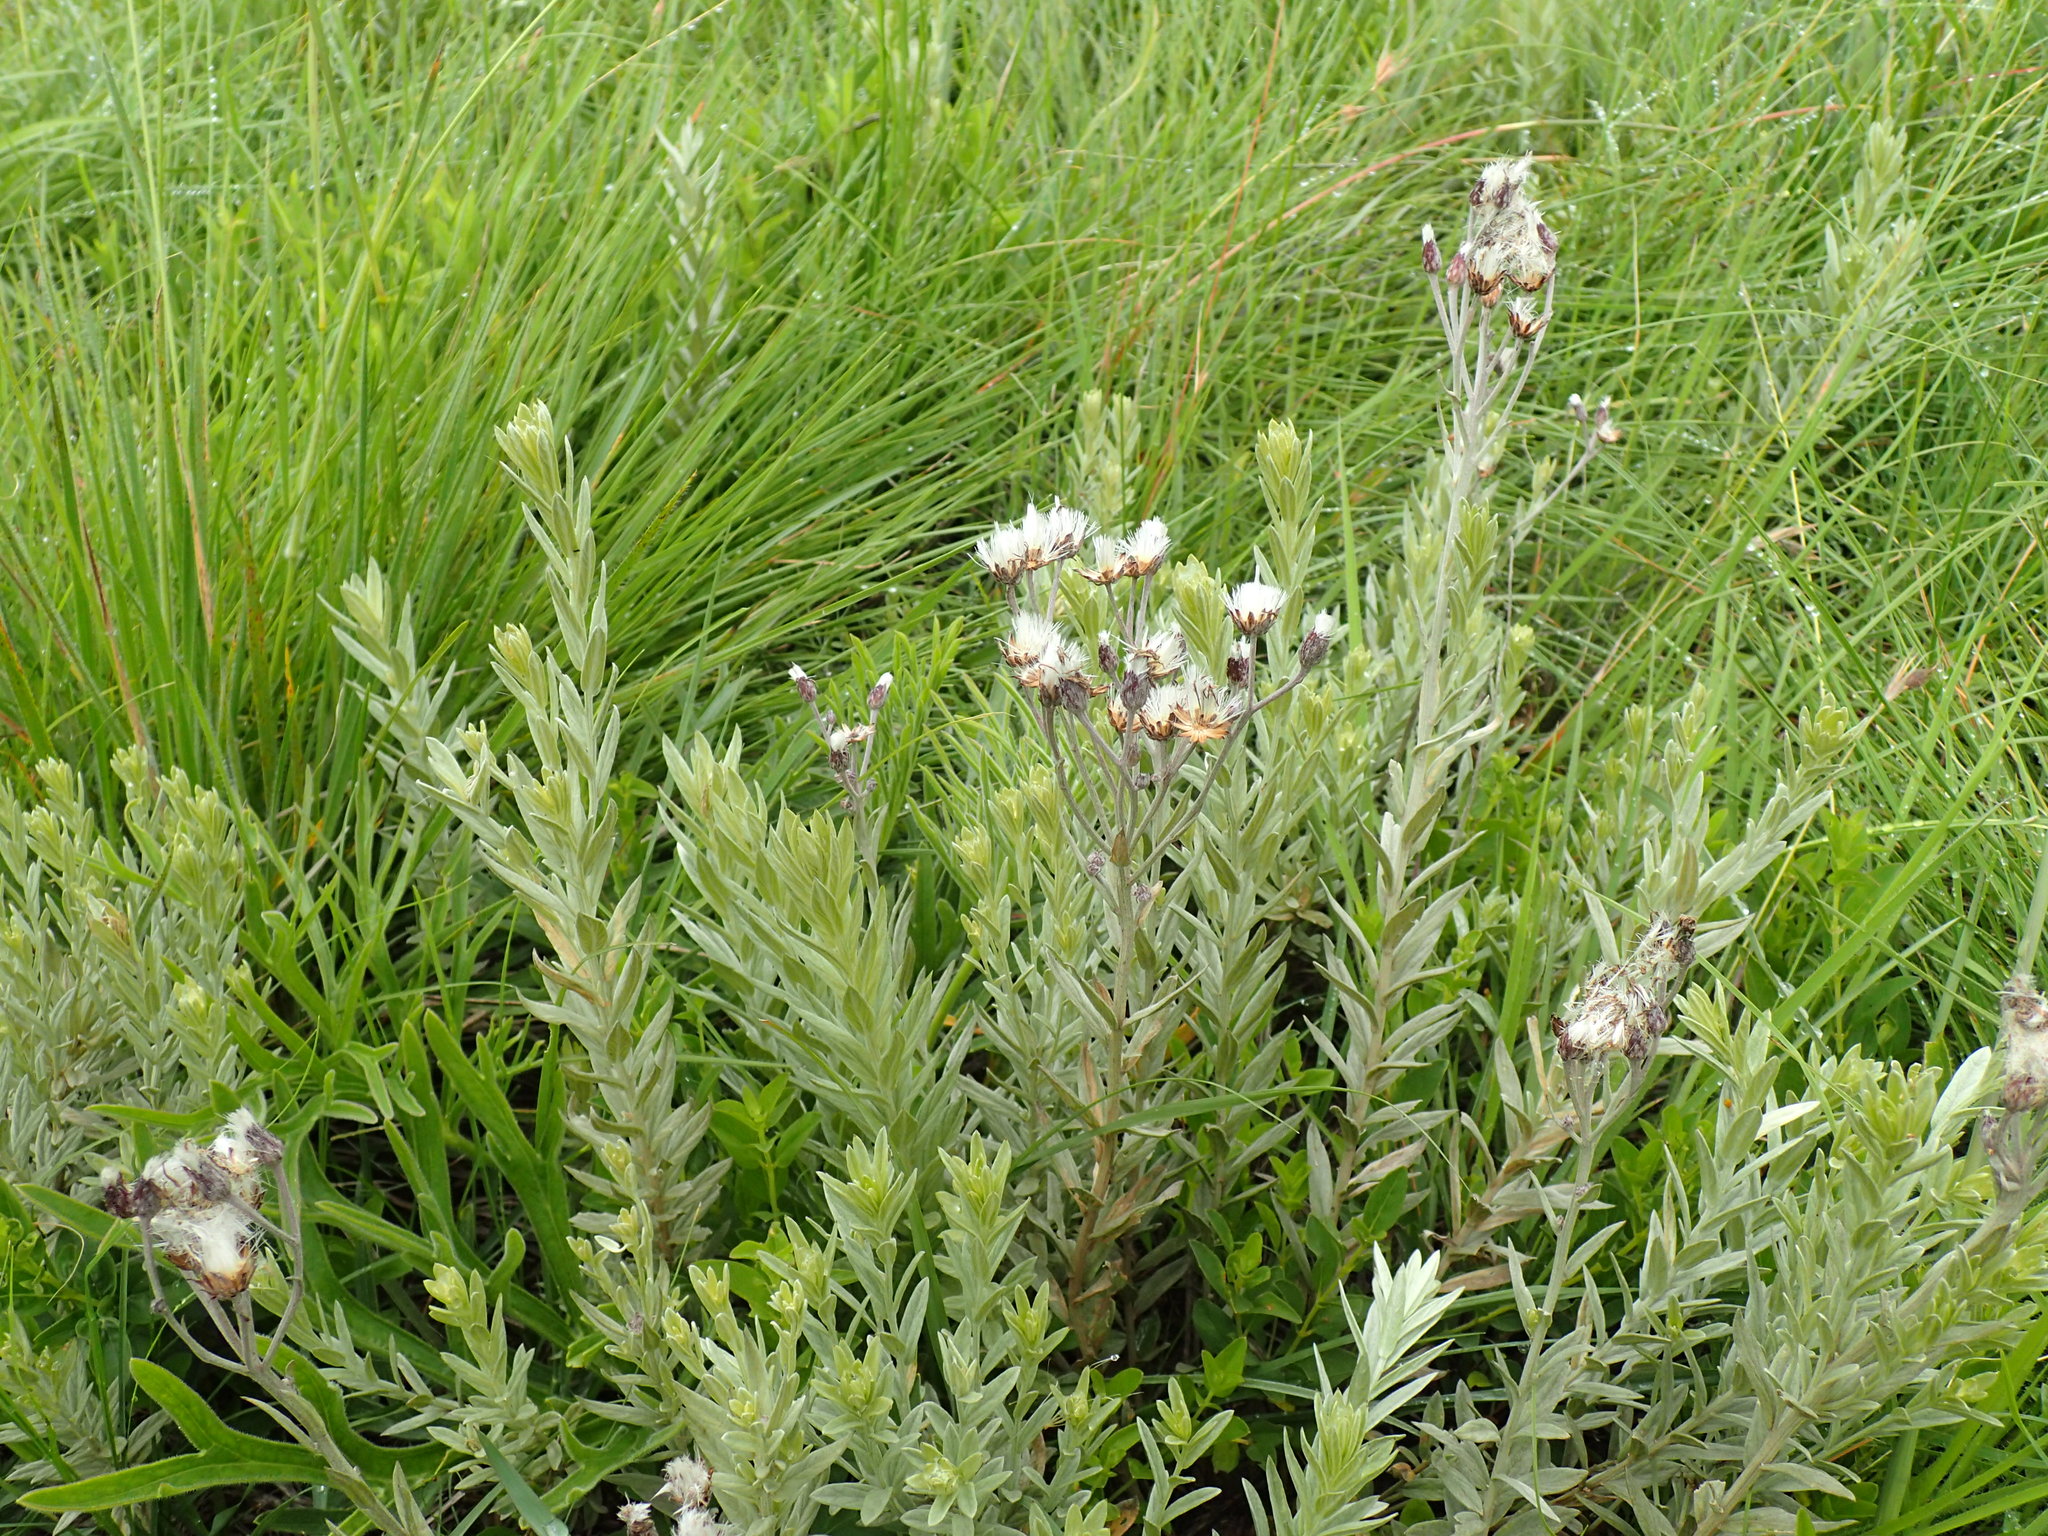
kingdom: Plantae
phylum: Tracheophyta
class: Magnoliopsida
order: Asterales
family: Asteraceae
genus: Hilliardiella
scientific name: Hilliardiella aristata
